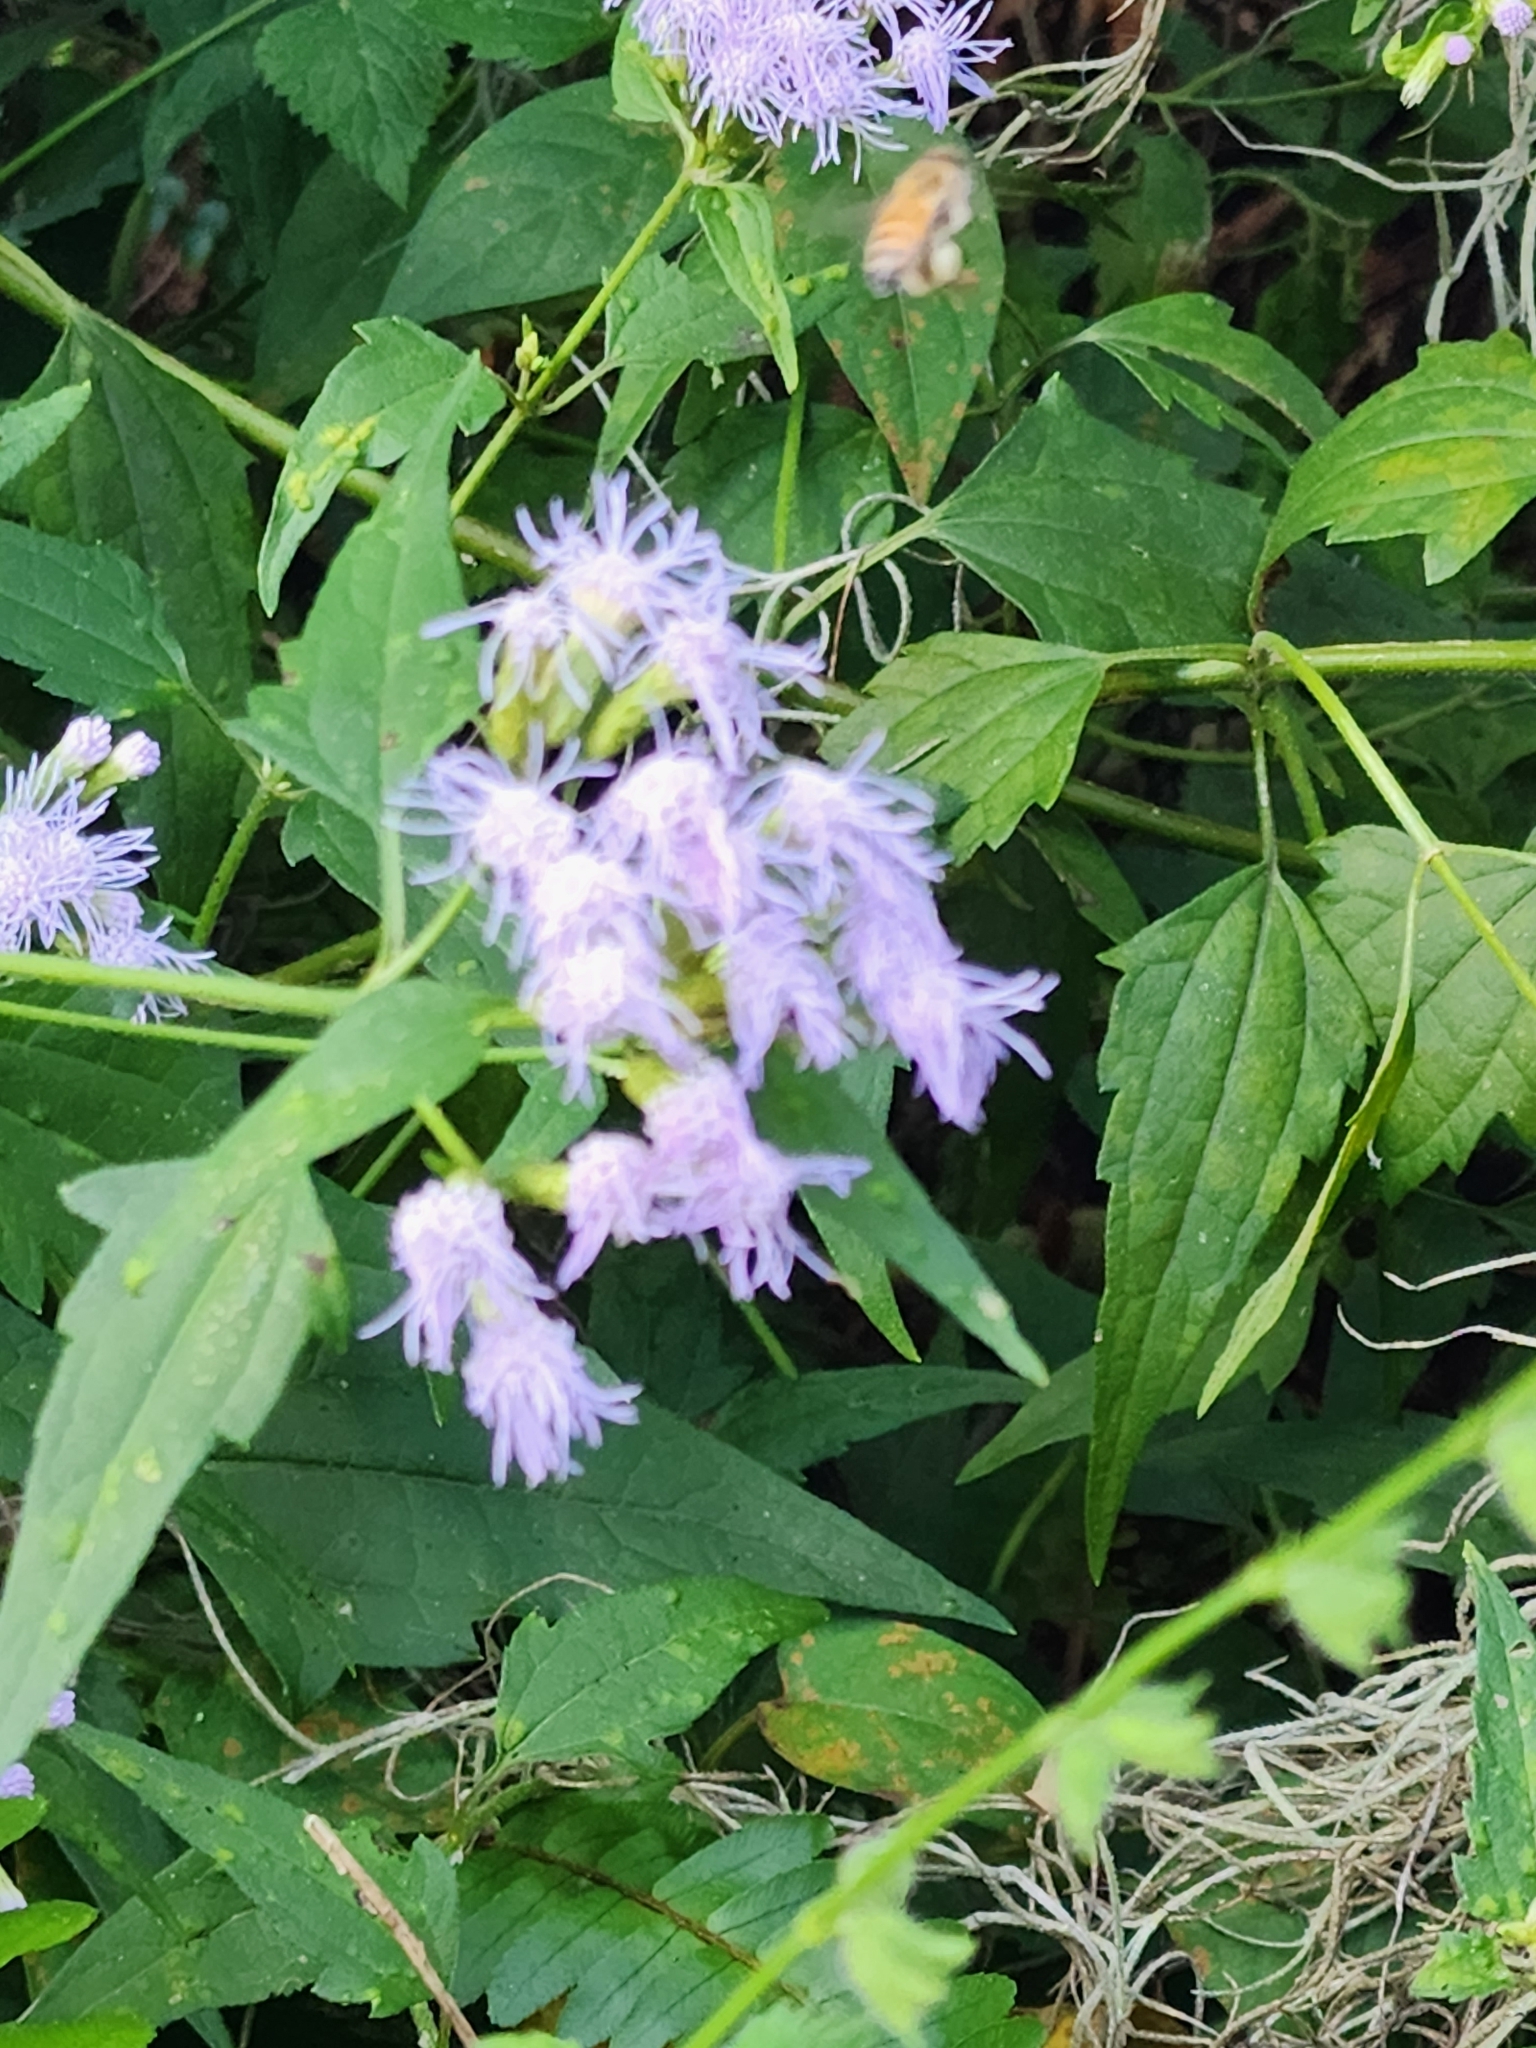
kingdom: Plantae
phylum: Tracheophyta
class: Magnoliopsida
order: Asterales
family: Asteraceae
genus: Chromolaena
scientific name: Chromolaena odorata
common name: Siamweed
